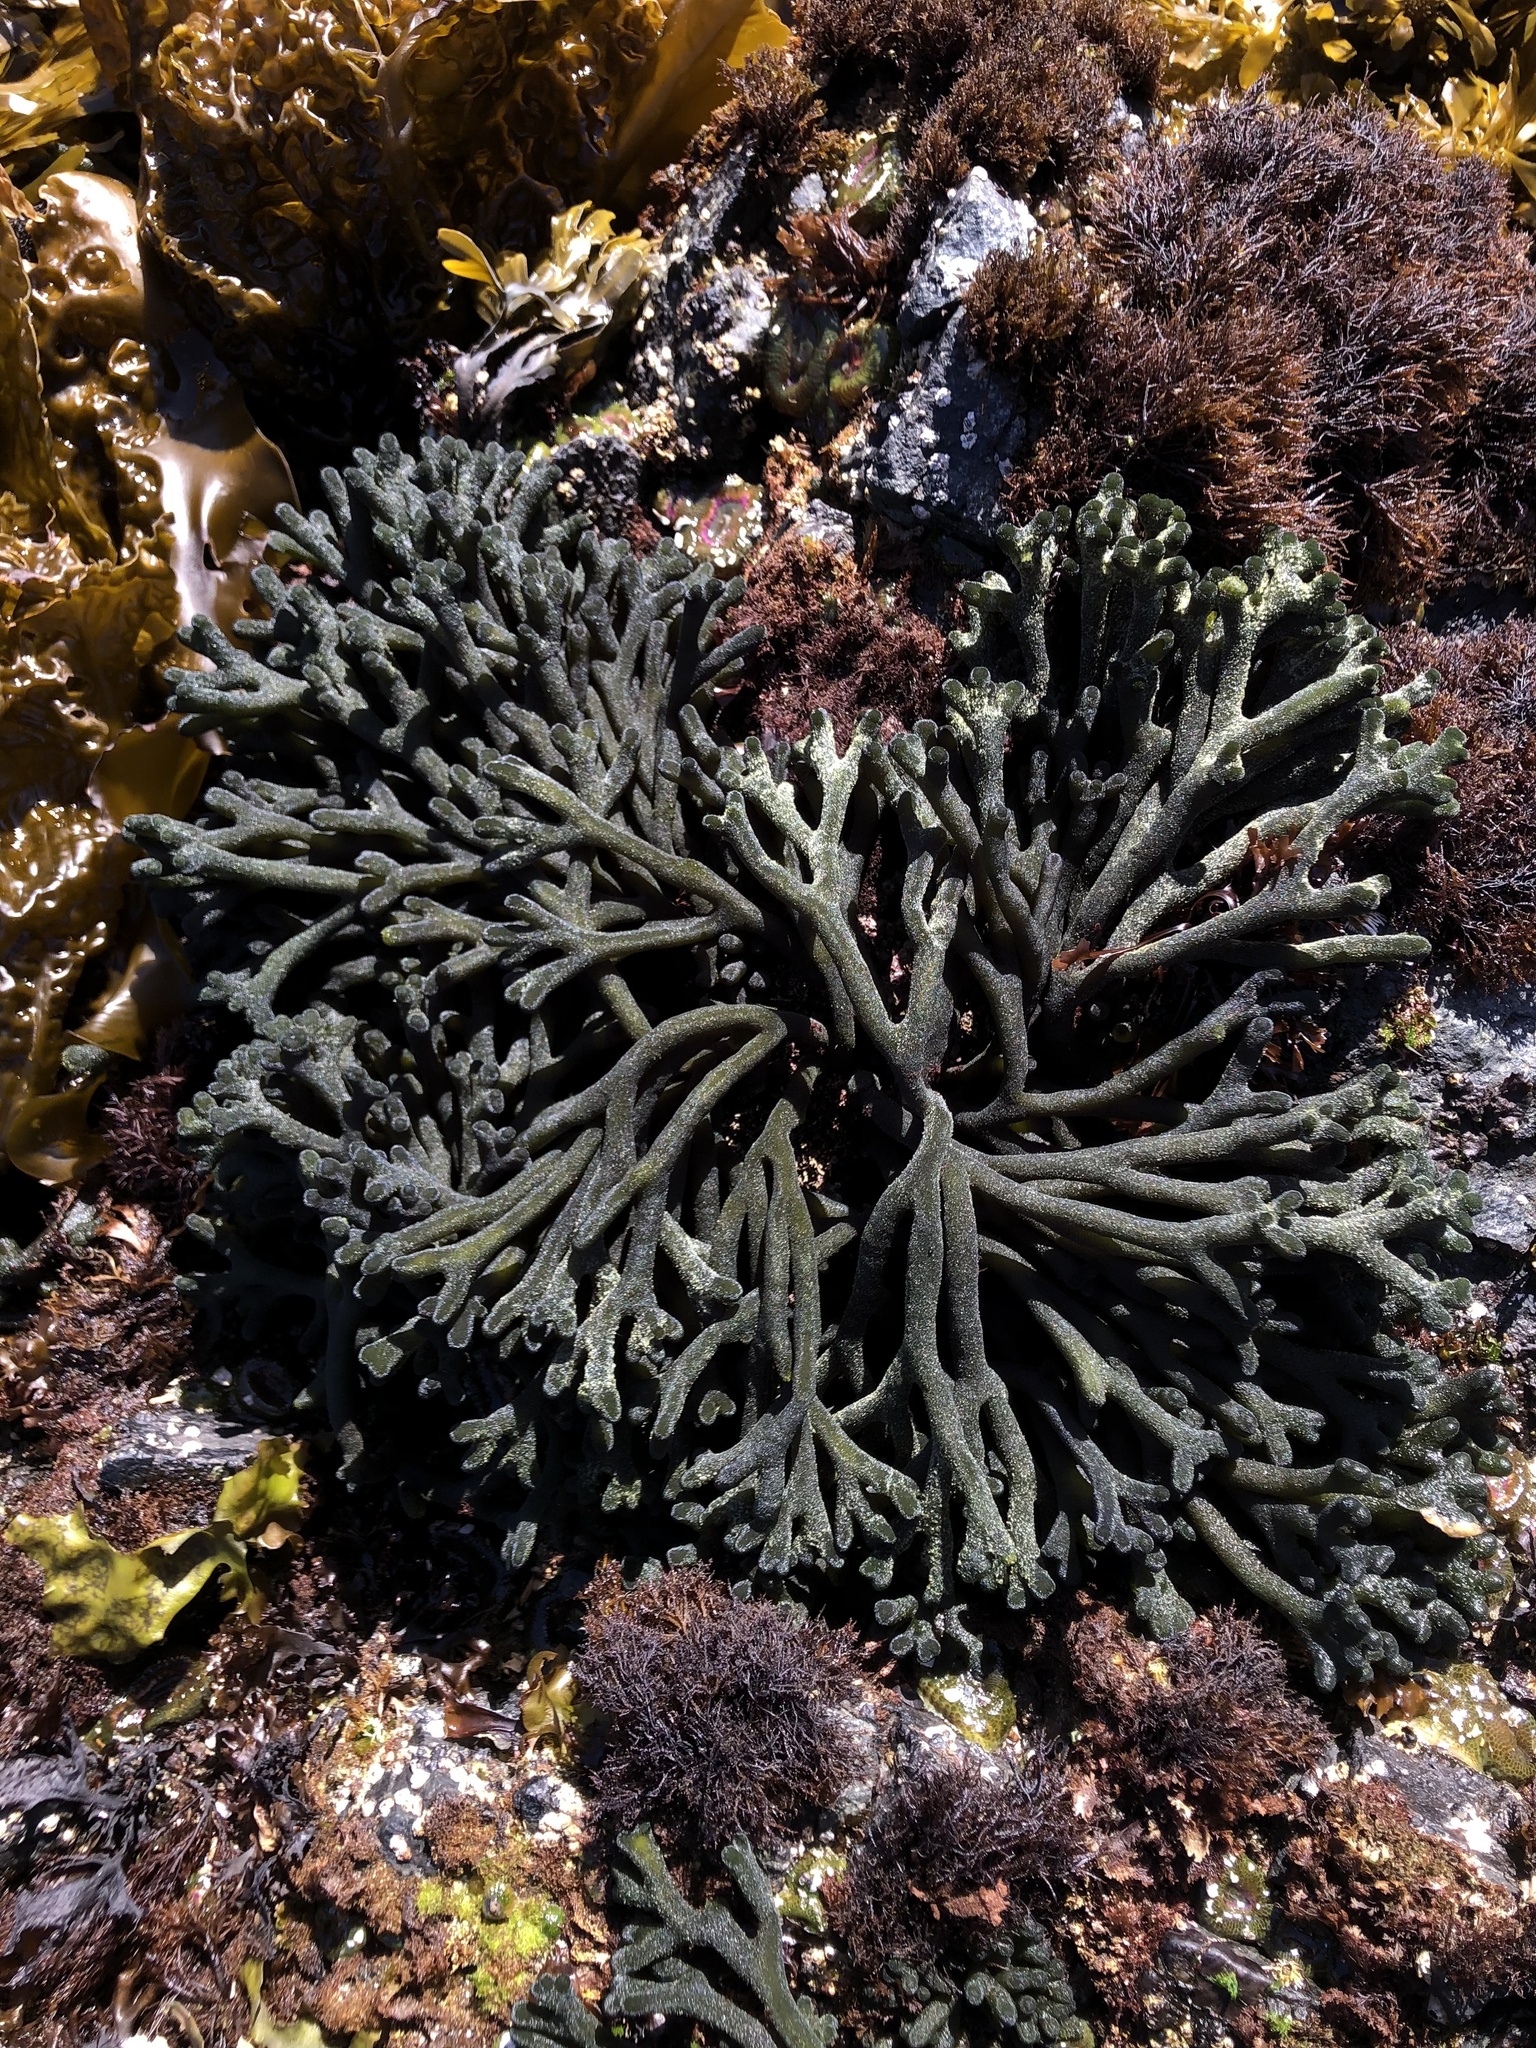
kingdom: Plantae
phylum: Chlorophyta
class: Ulvophyceae
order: Bryopsidales
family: Codiaceae
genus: Codium
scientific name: Codium fragile
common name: Dead man's fingers
